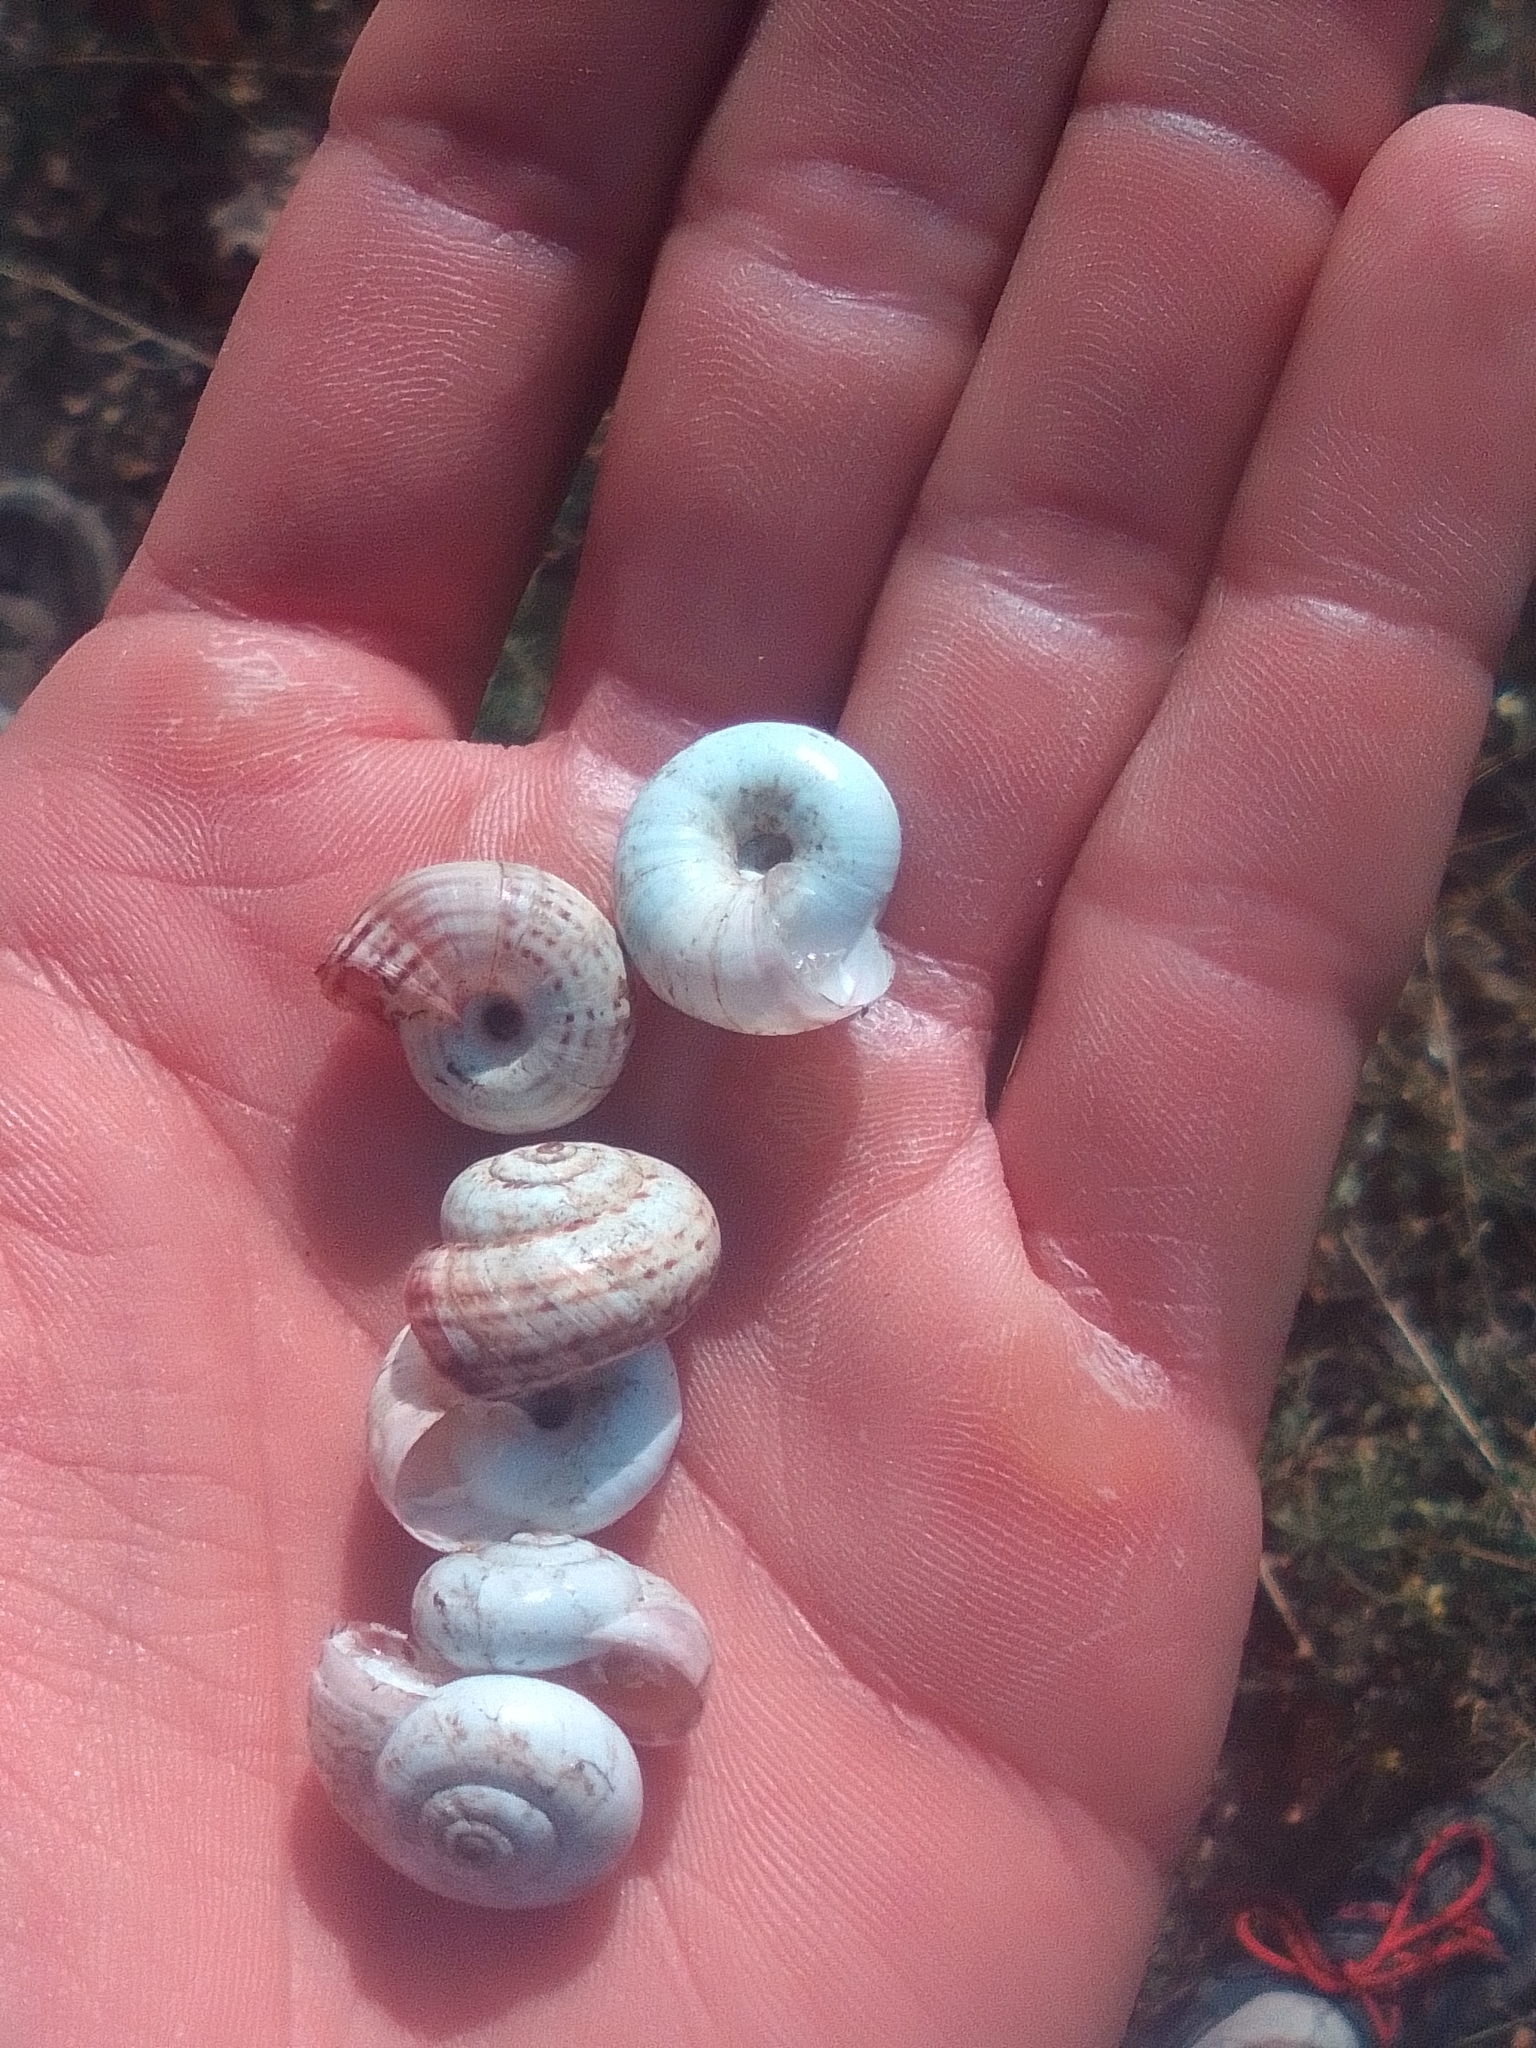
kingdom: Animalia
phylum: Mollusca
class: Gastropoda
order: Stylommatophora
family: Geomitridae
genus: Xeropicta
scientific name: Xeropicta derbentina
